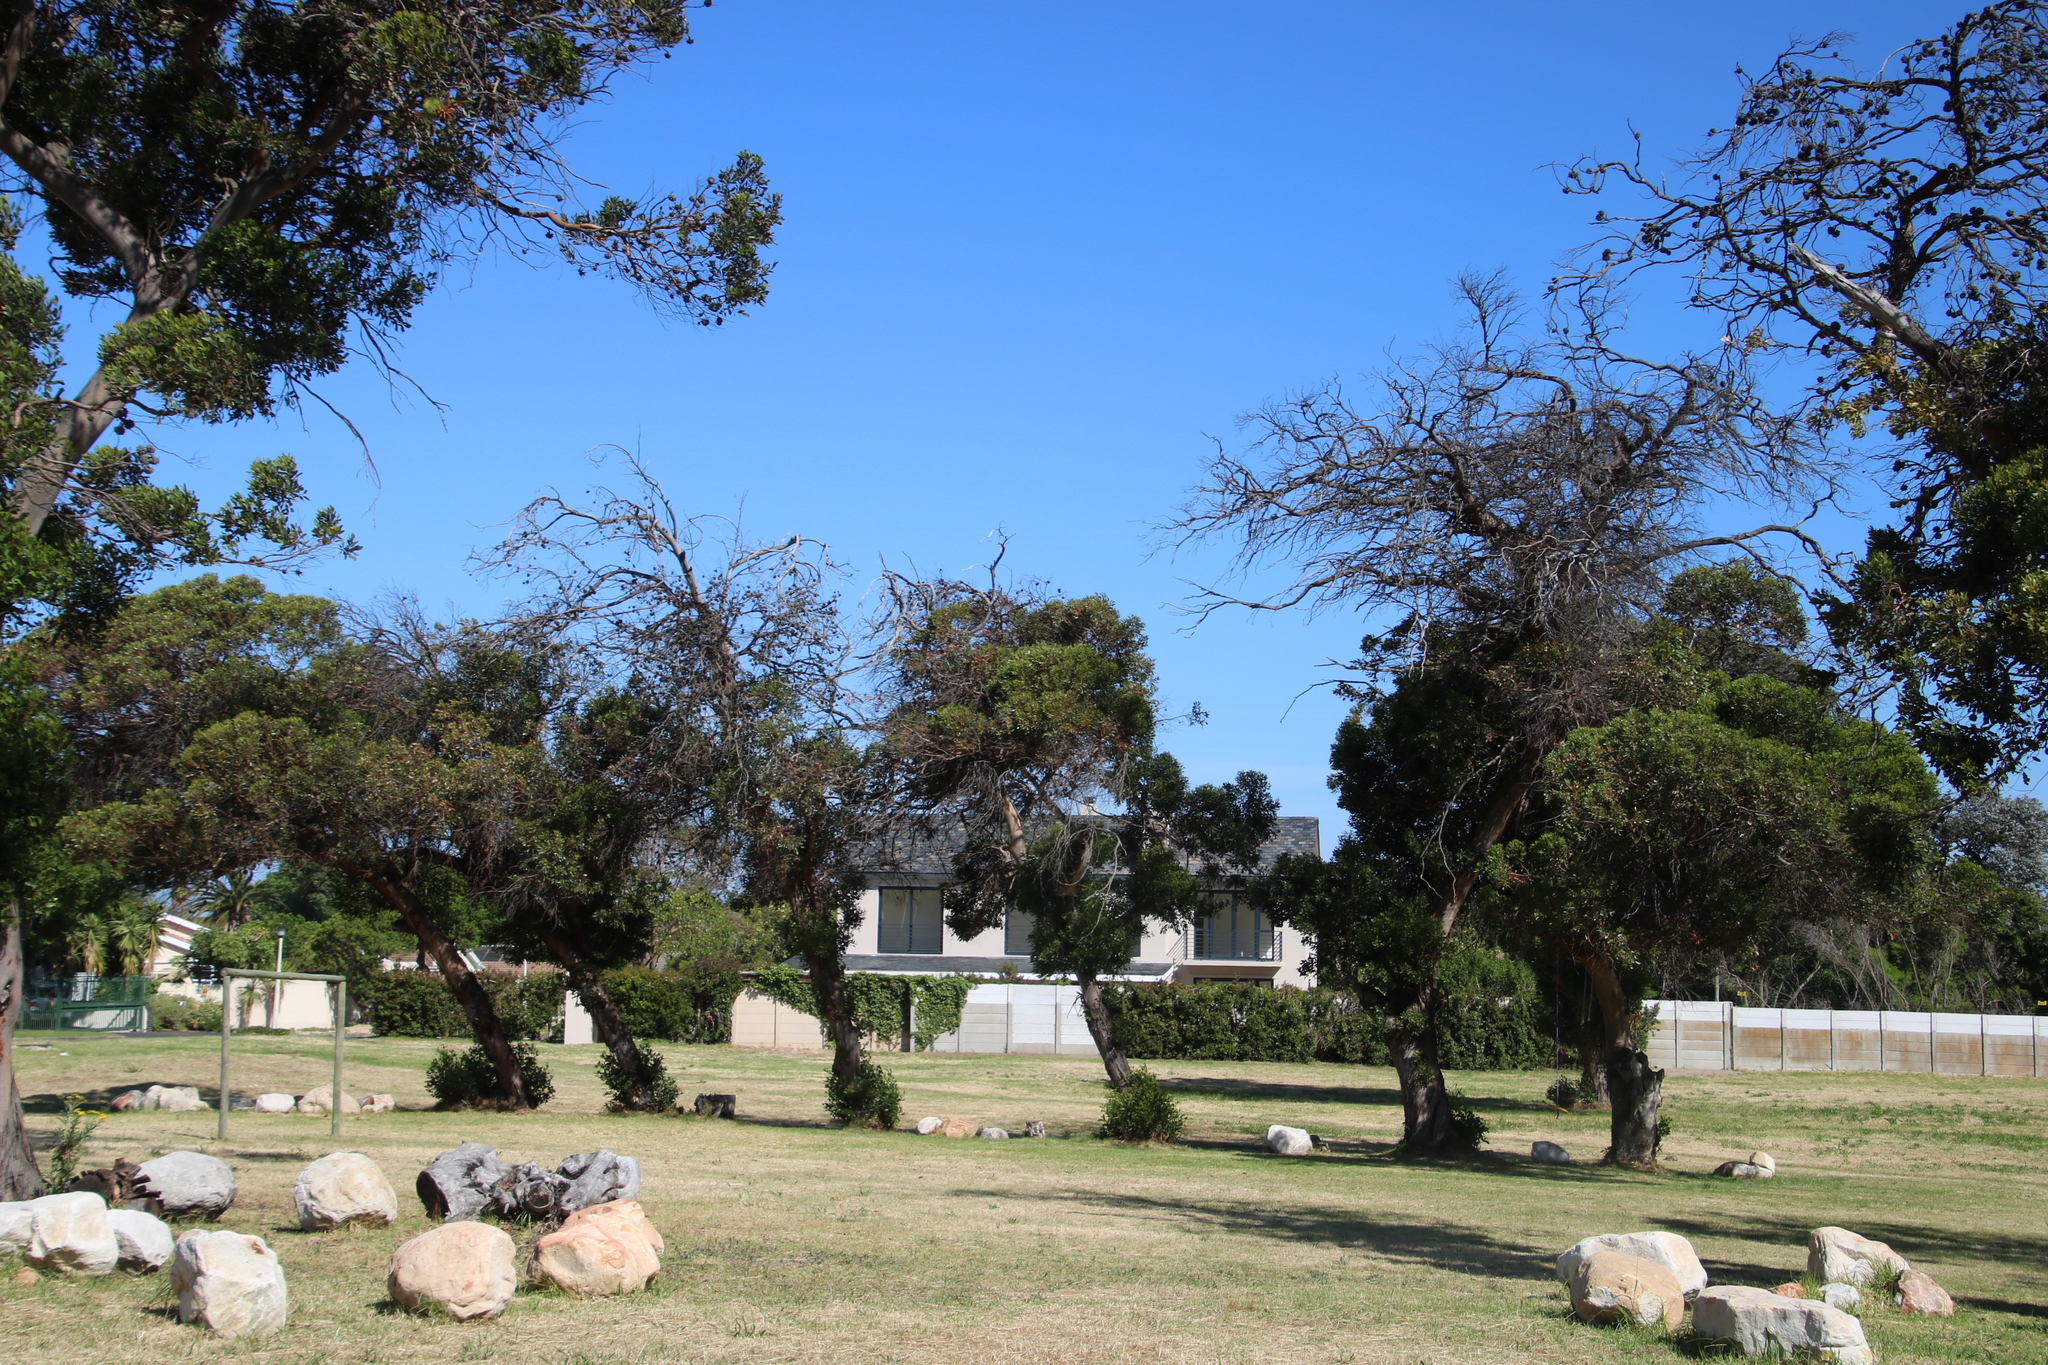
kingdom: Plantae
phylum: Tracheophyta
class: Magnoliopsida
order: Myrtales
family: Myrtaceae
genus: Eucalyptus
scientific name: Eucalyptus conferruminata
